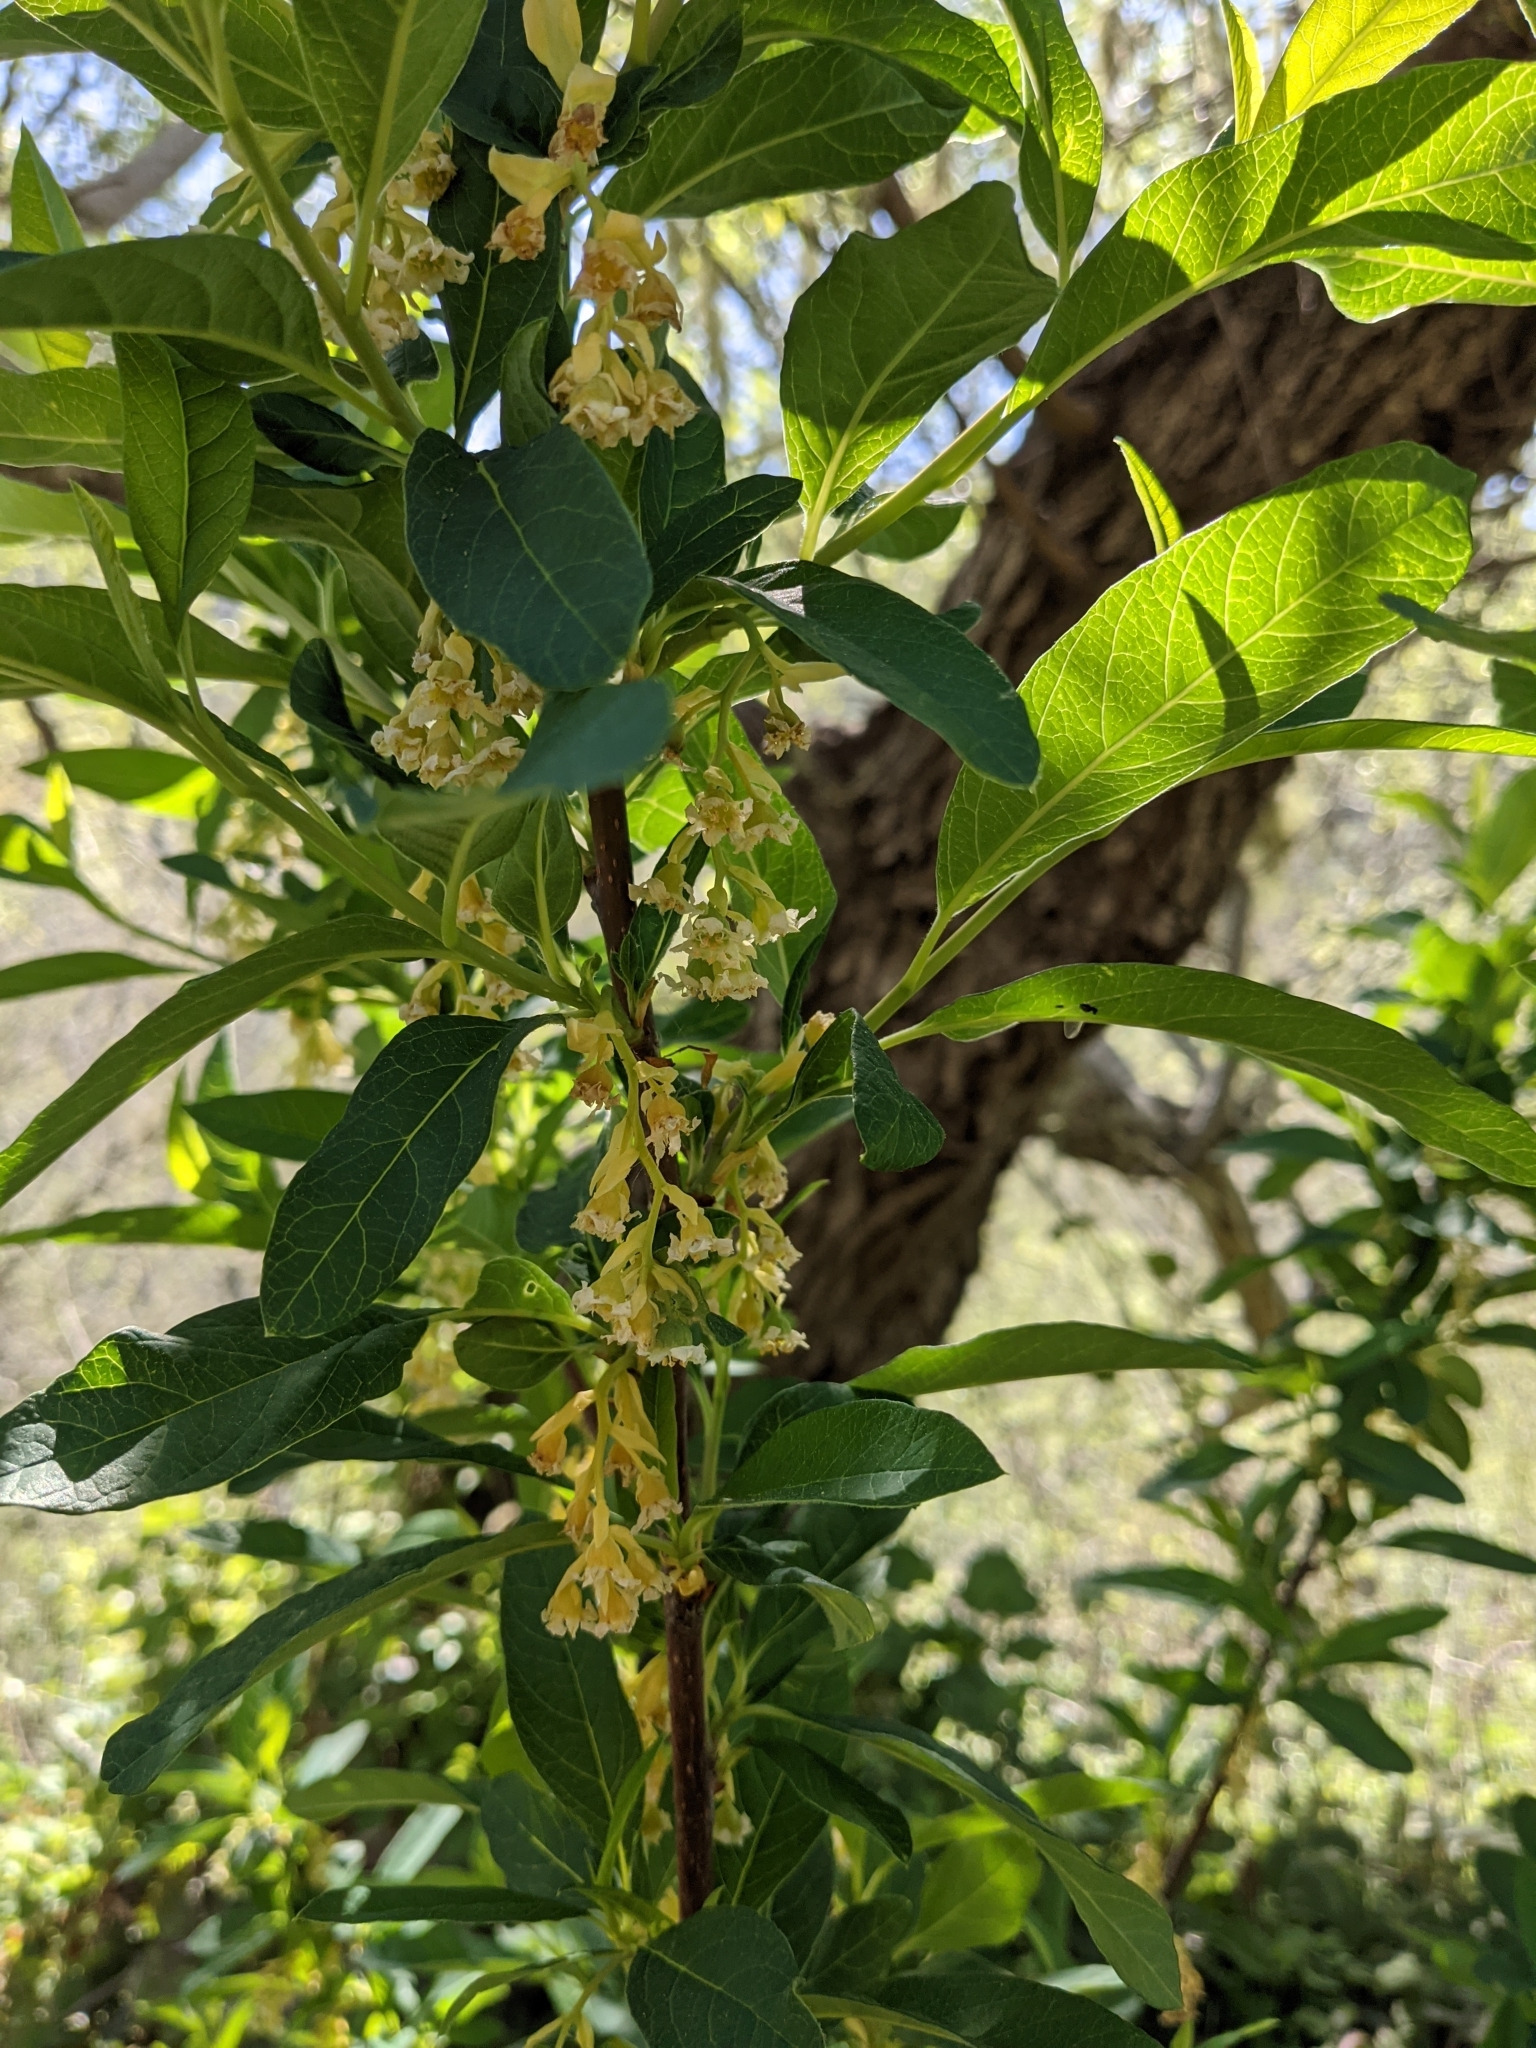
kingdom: Plantae
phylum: Tracheophyta
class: Magnoliopsida
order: Rosales
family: Rosaceae
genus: Oemleria
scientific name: Oemleria cerasiformis
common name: Osoberry
